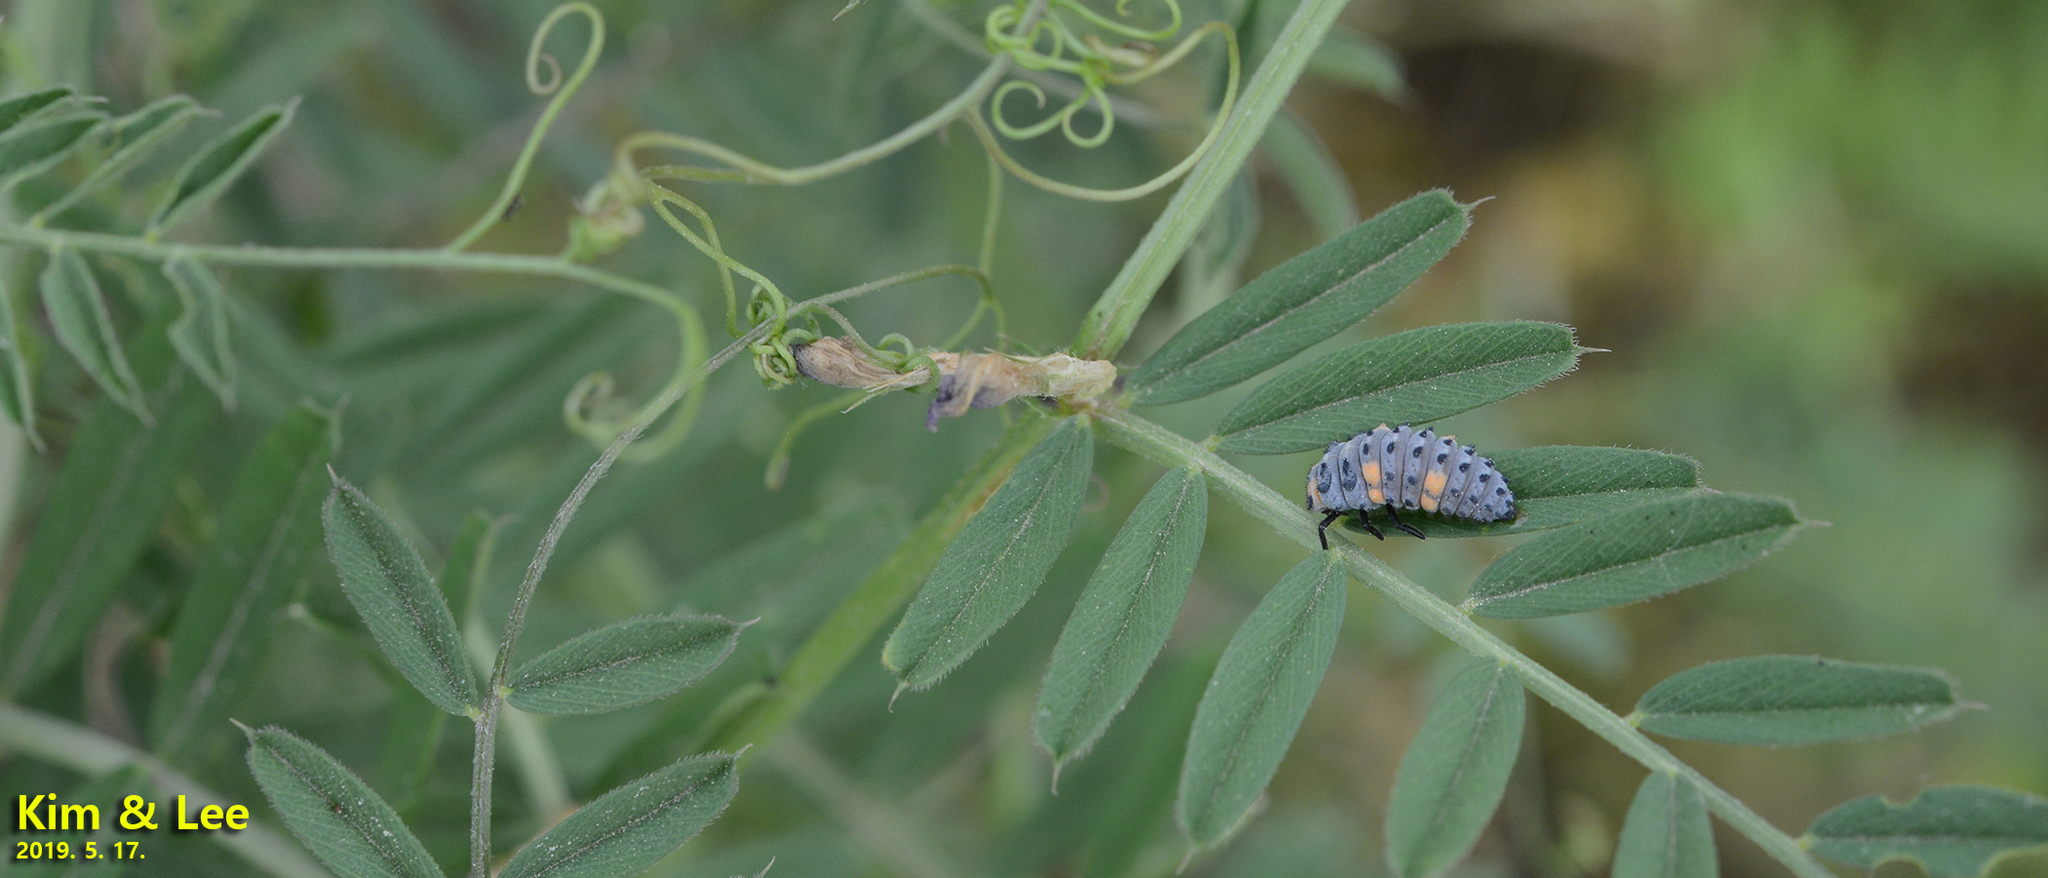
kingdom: Animalia
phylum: Arthropoda
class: Insecta
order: Coleoptera
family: Coccinellidae
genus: Coccinella
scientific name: Coccinella septempunctata
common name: Sevenspotted lady beetle
